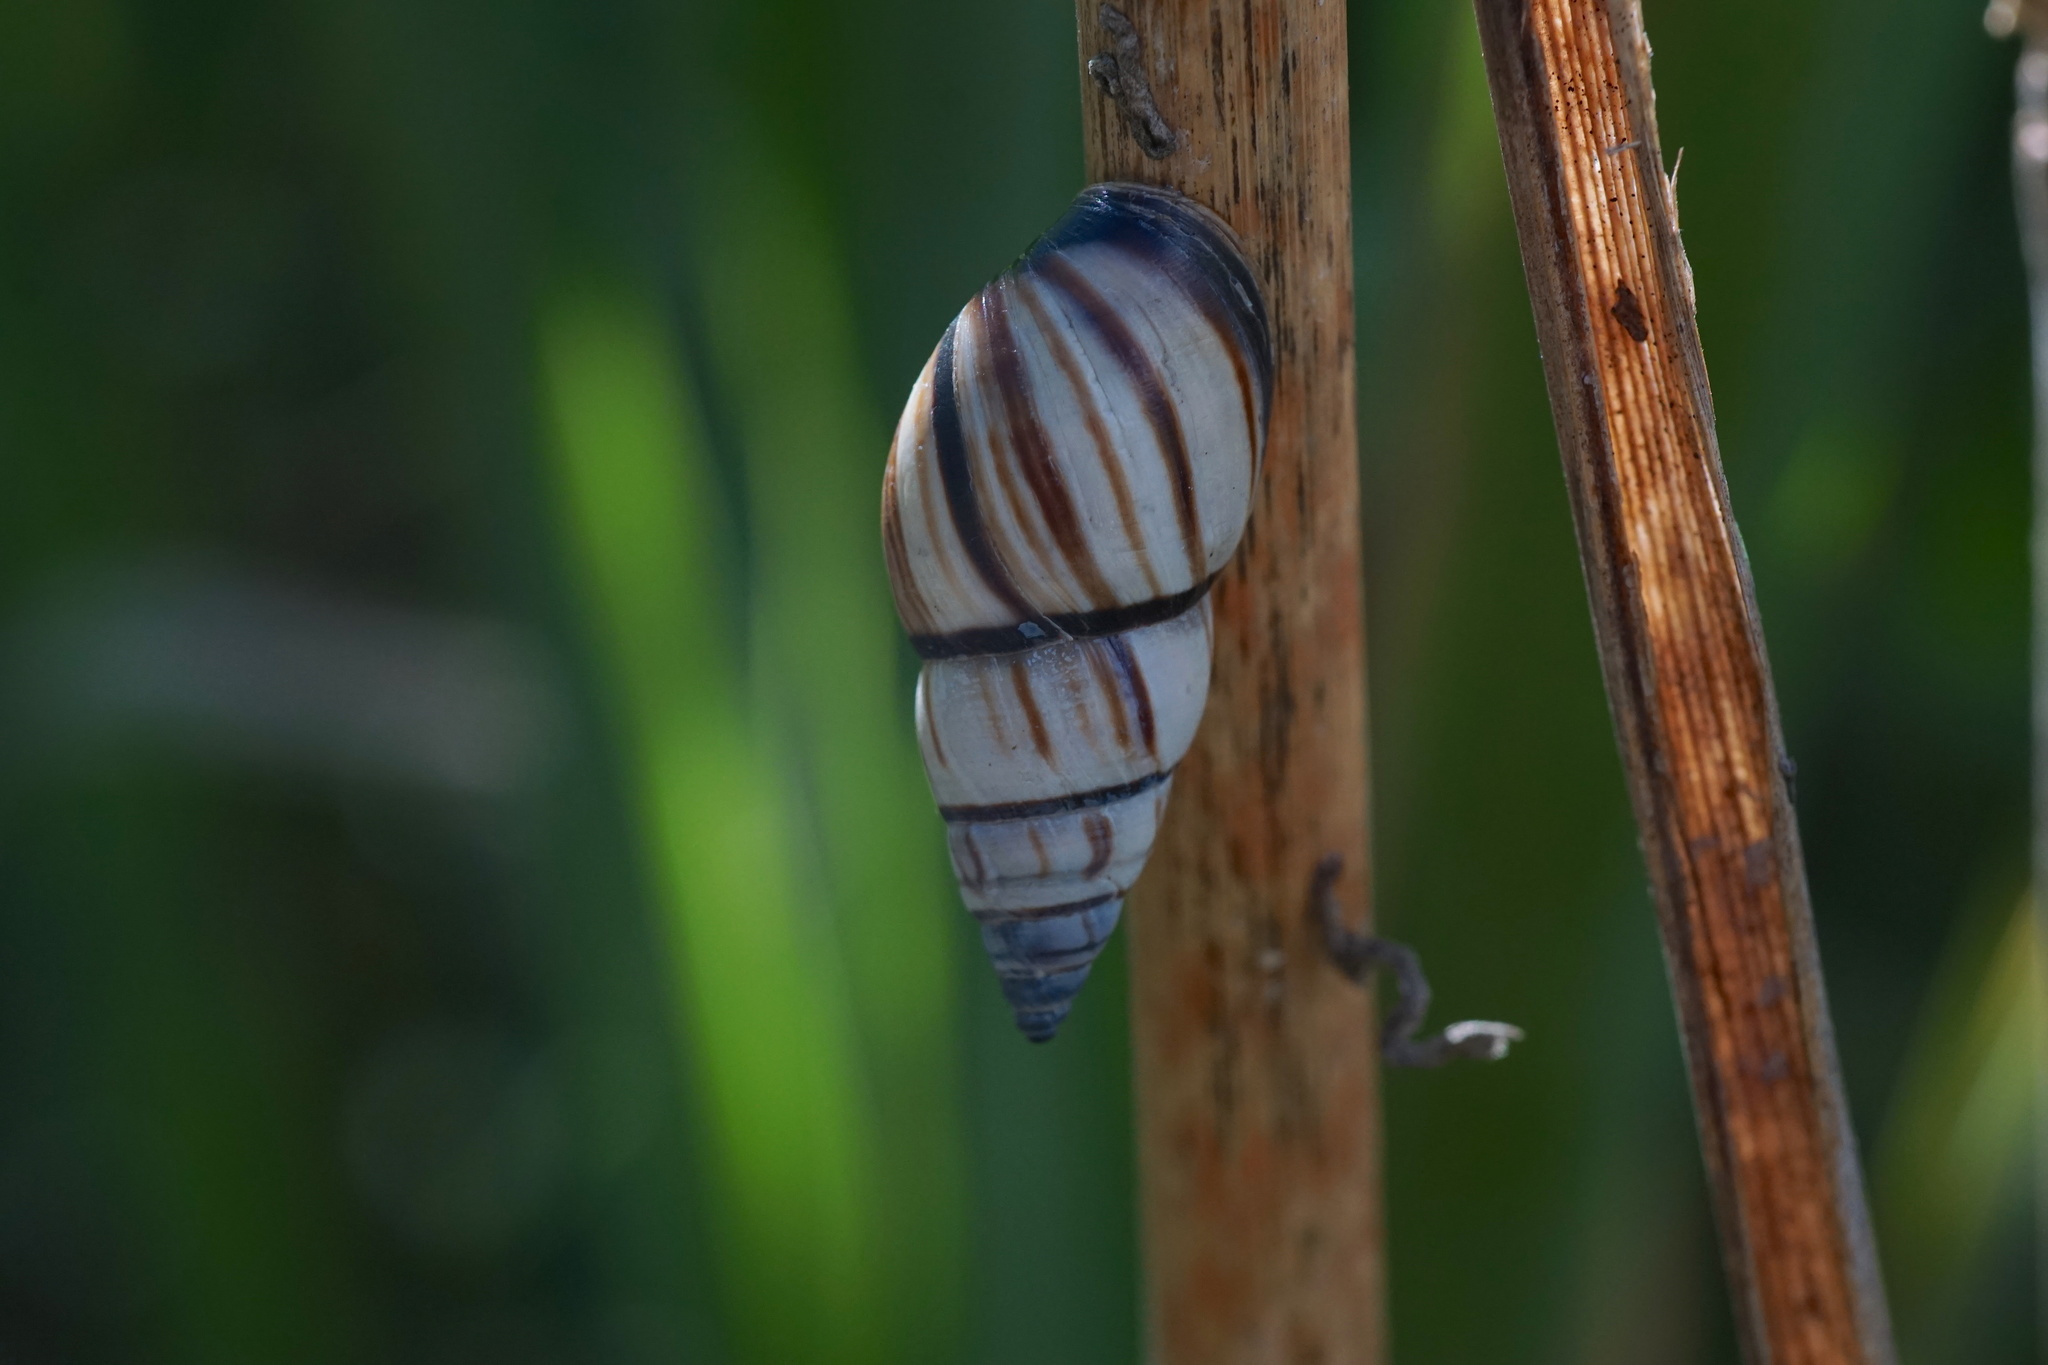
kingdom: Animalia
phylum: Mollusca
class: Gastropoda
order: Stylommatophora
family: Bulimulidae
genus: Drymaeus
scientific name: Drymaeus
